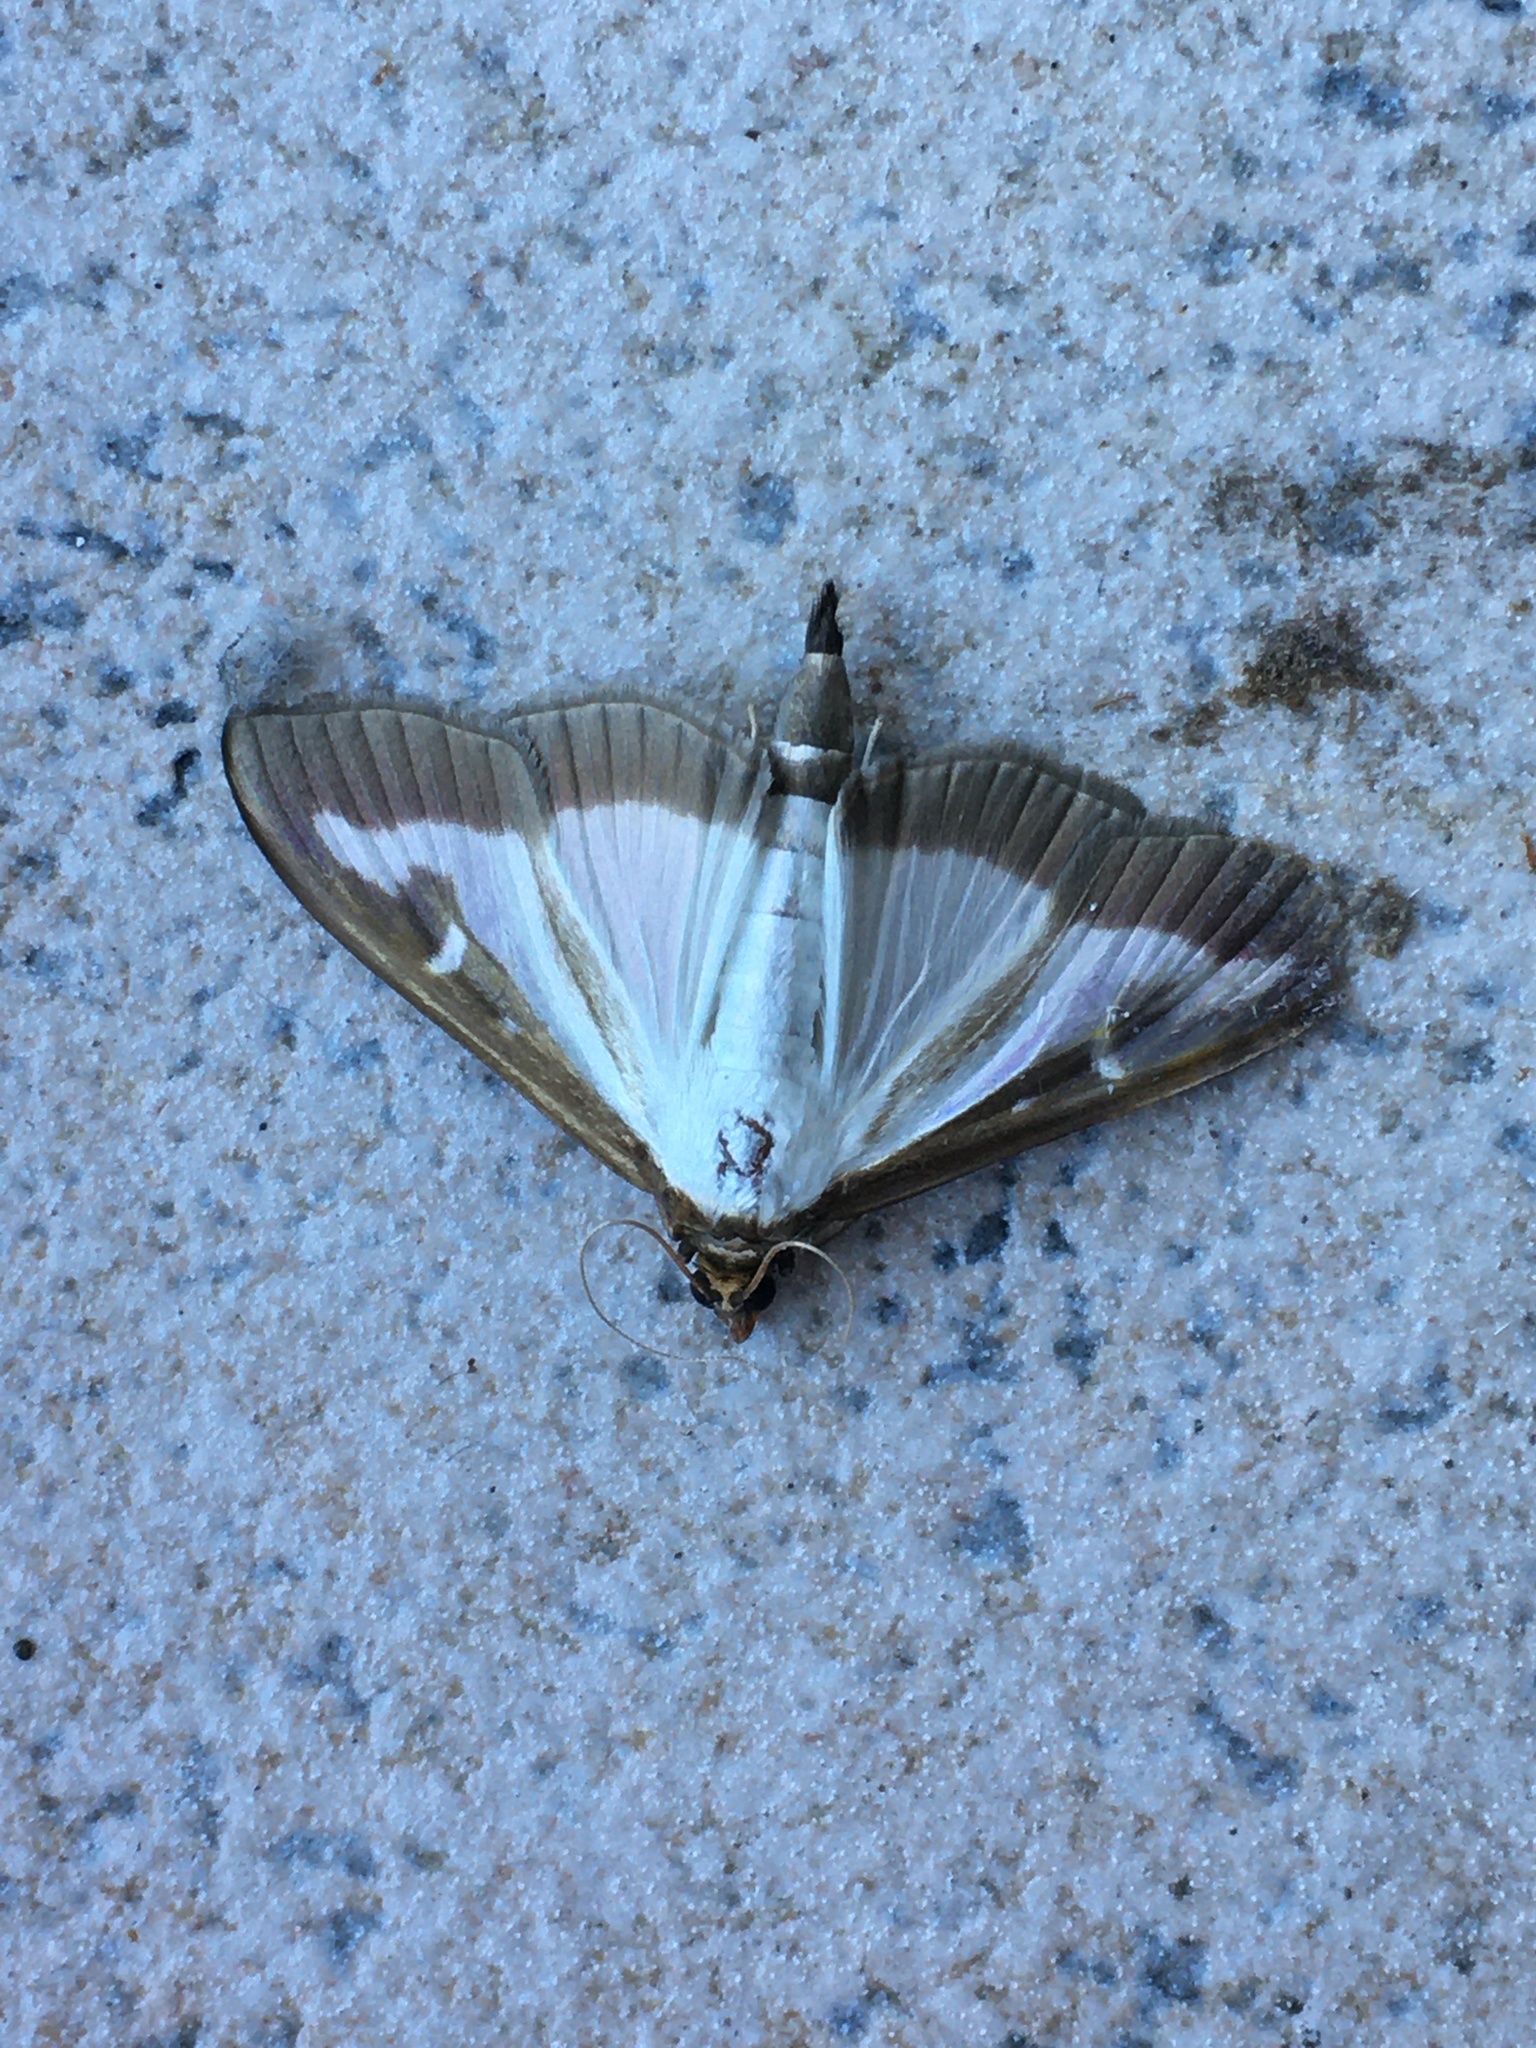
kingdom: Animalia
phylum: Arthropoda
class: Insecta
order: Lepidoptera
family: Crambidae
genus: Cydalima
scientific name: Cydalima perspectalis
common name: Box tree moth
